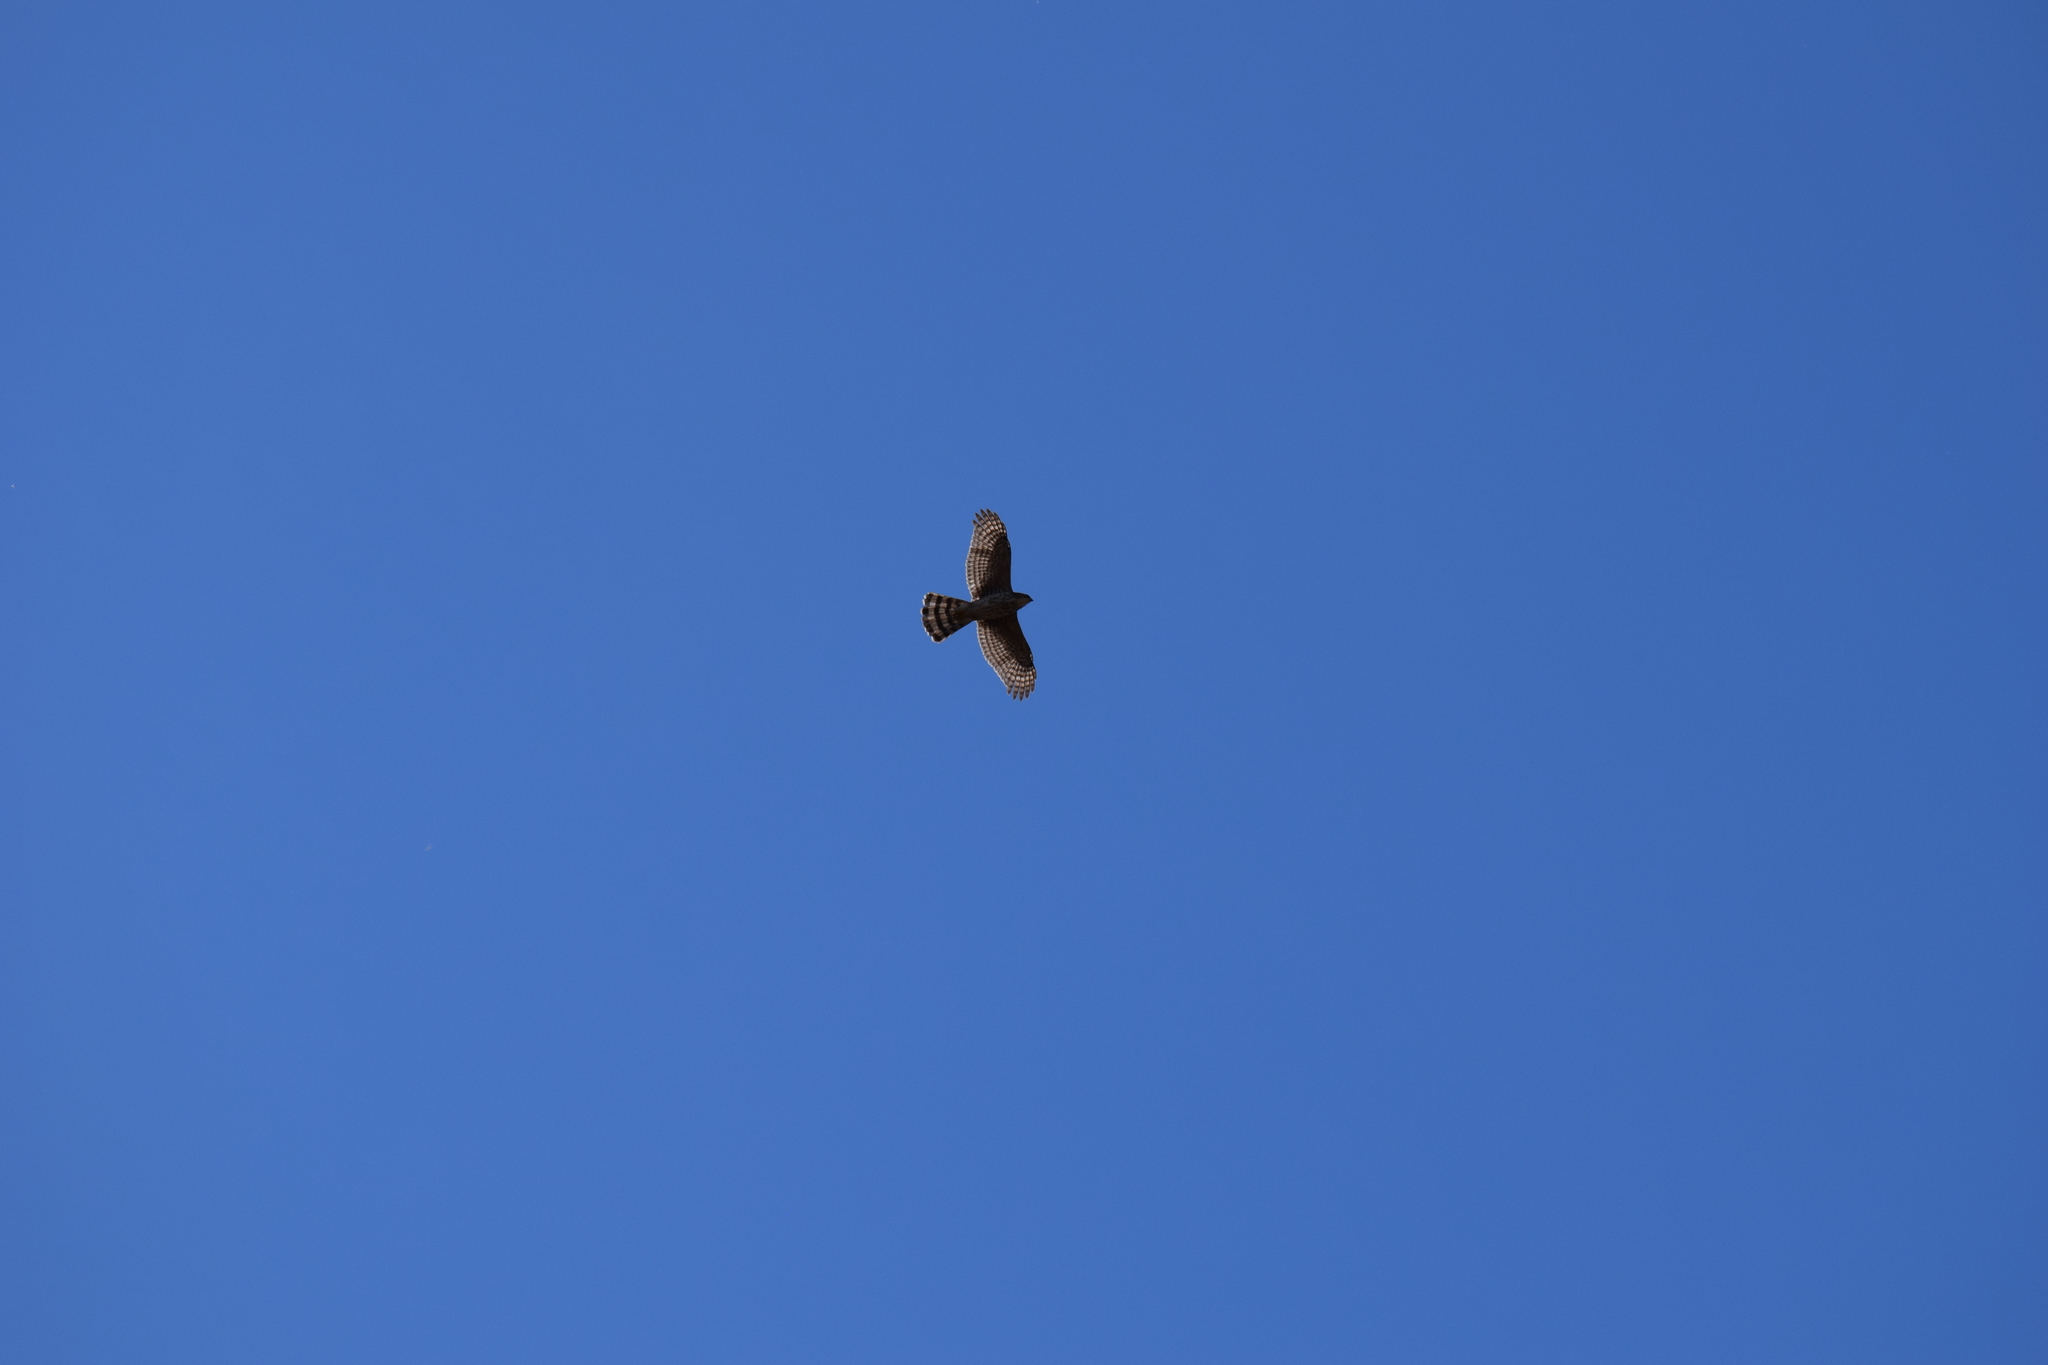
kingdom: Animalia
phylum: Chordata
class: Aves
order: Accipitriformes
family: Accipitridae
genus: Accipiter
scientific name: Accipiter cooperii
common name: Cooper's hawk
